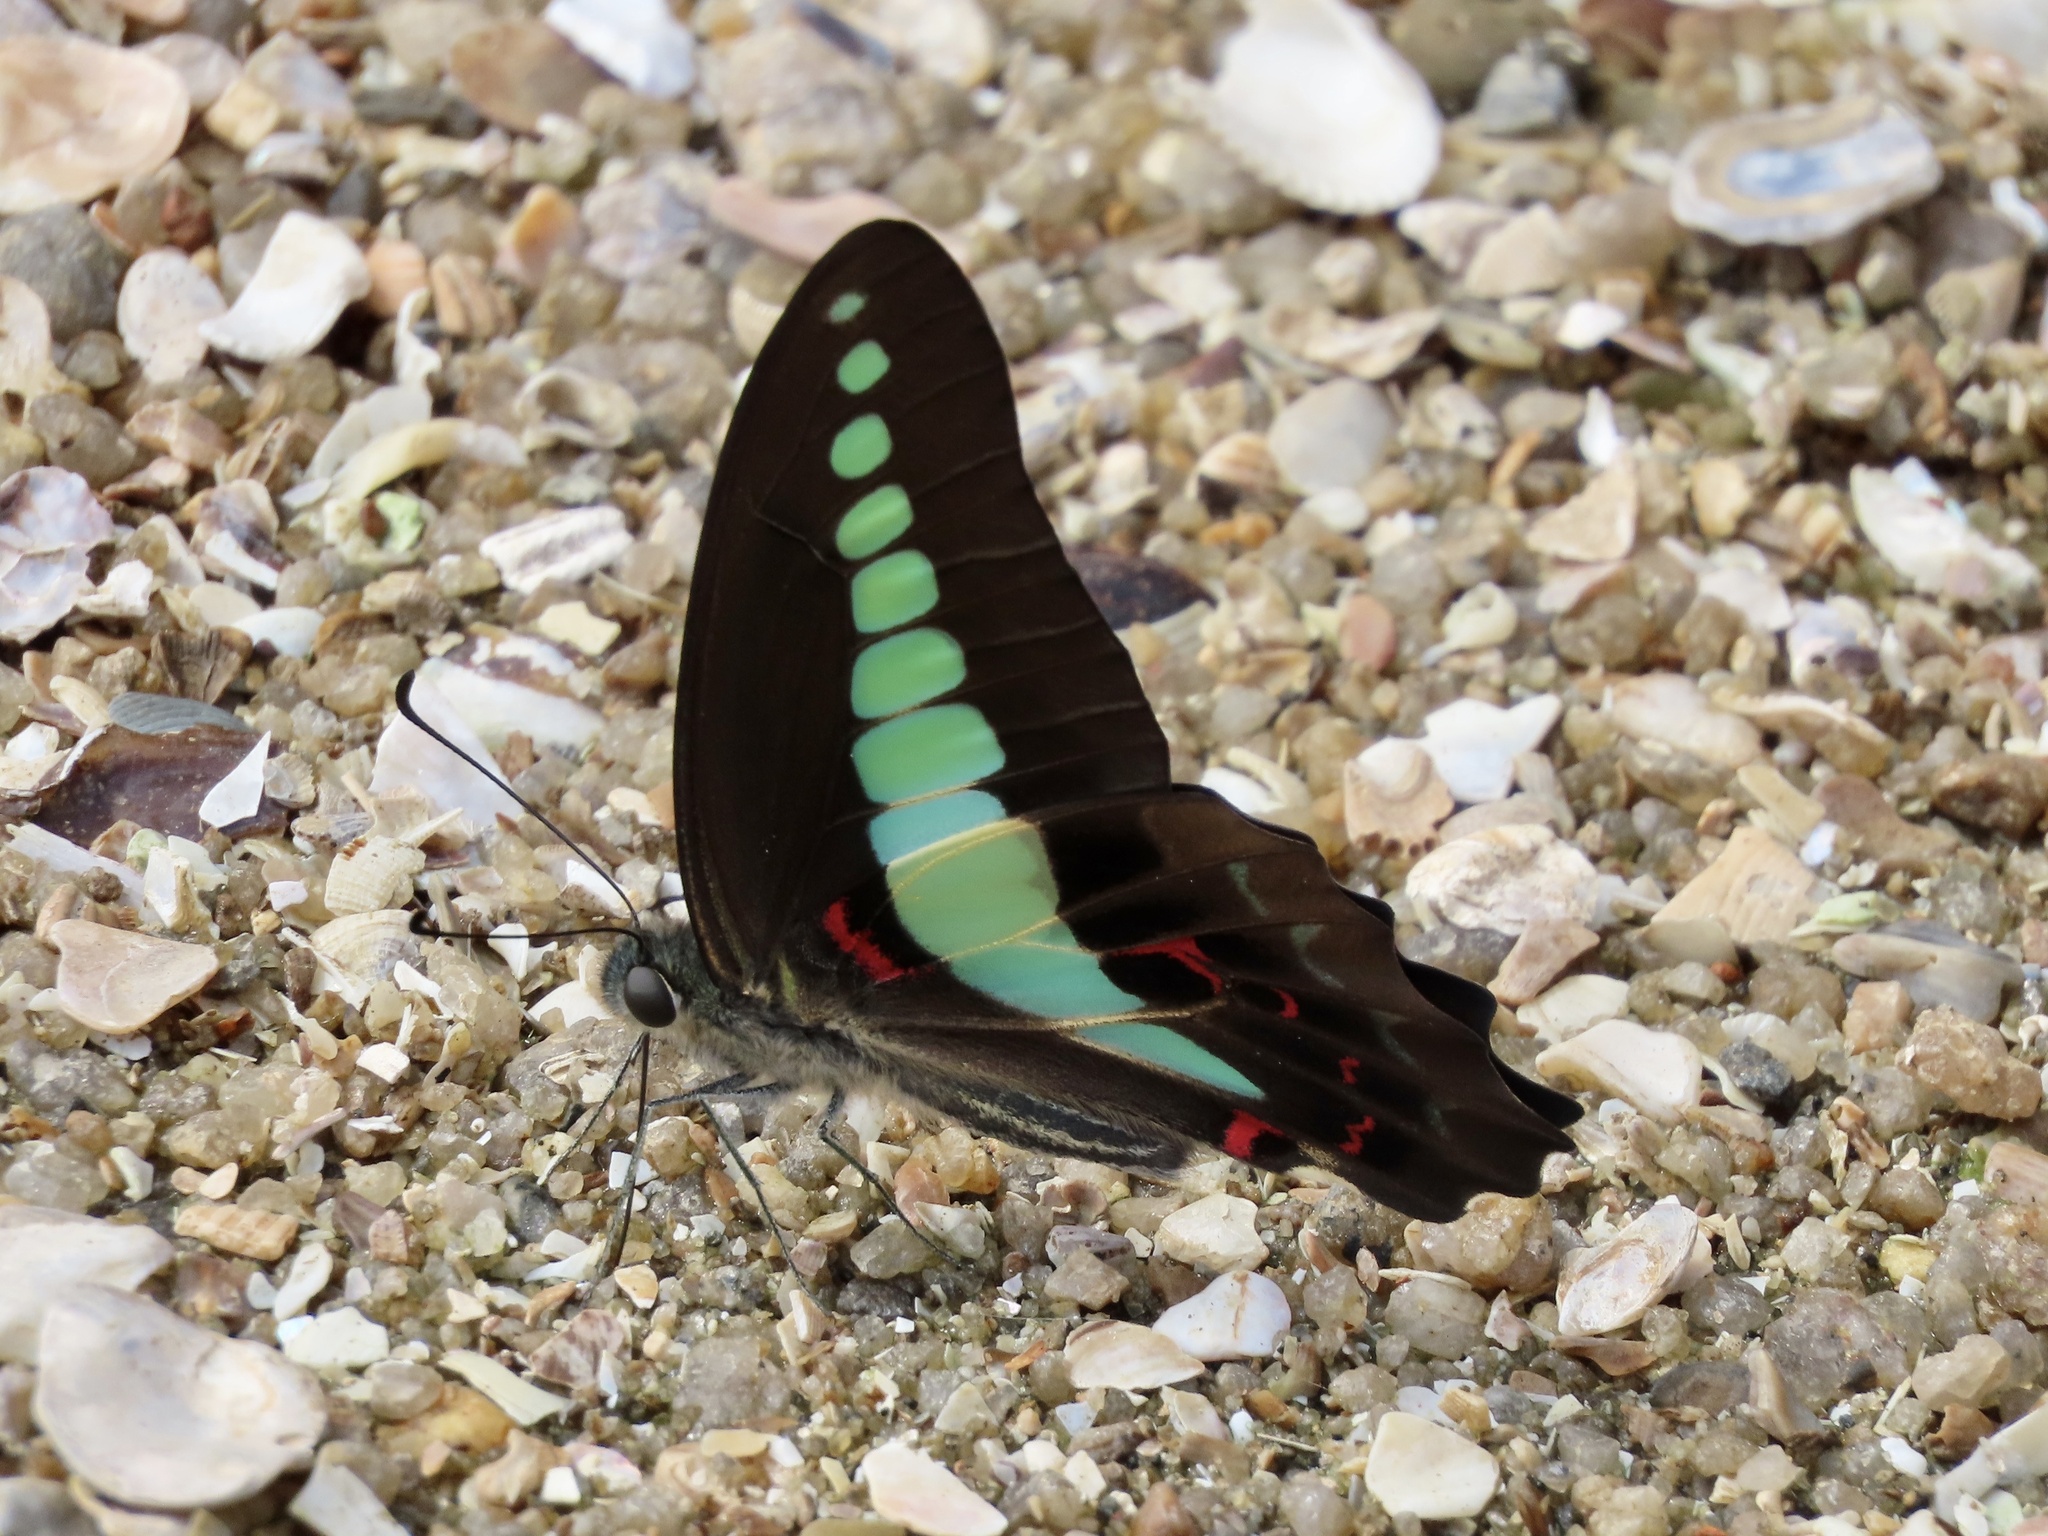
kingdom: Fungi
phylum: Ascomycota
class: Sordariomycetes
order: Microascales
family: Microascaceae
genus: Graphium
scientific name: Graphium sarpedon
